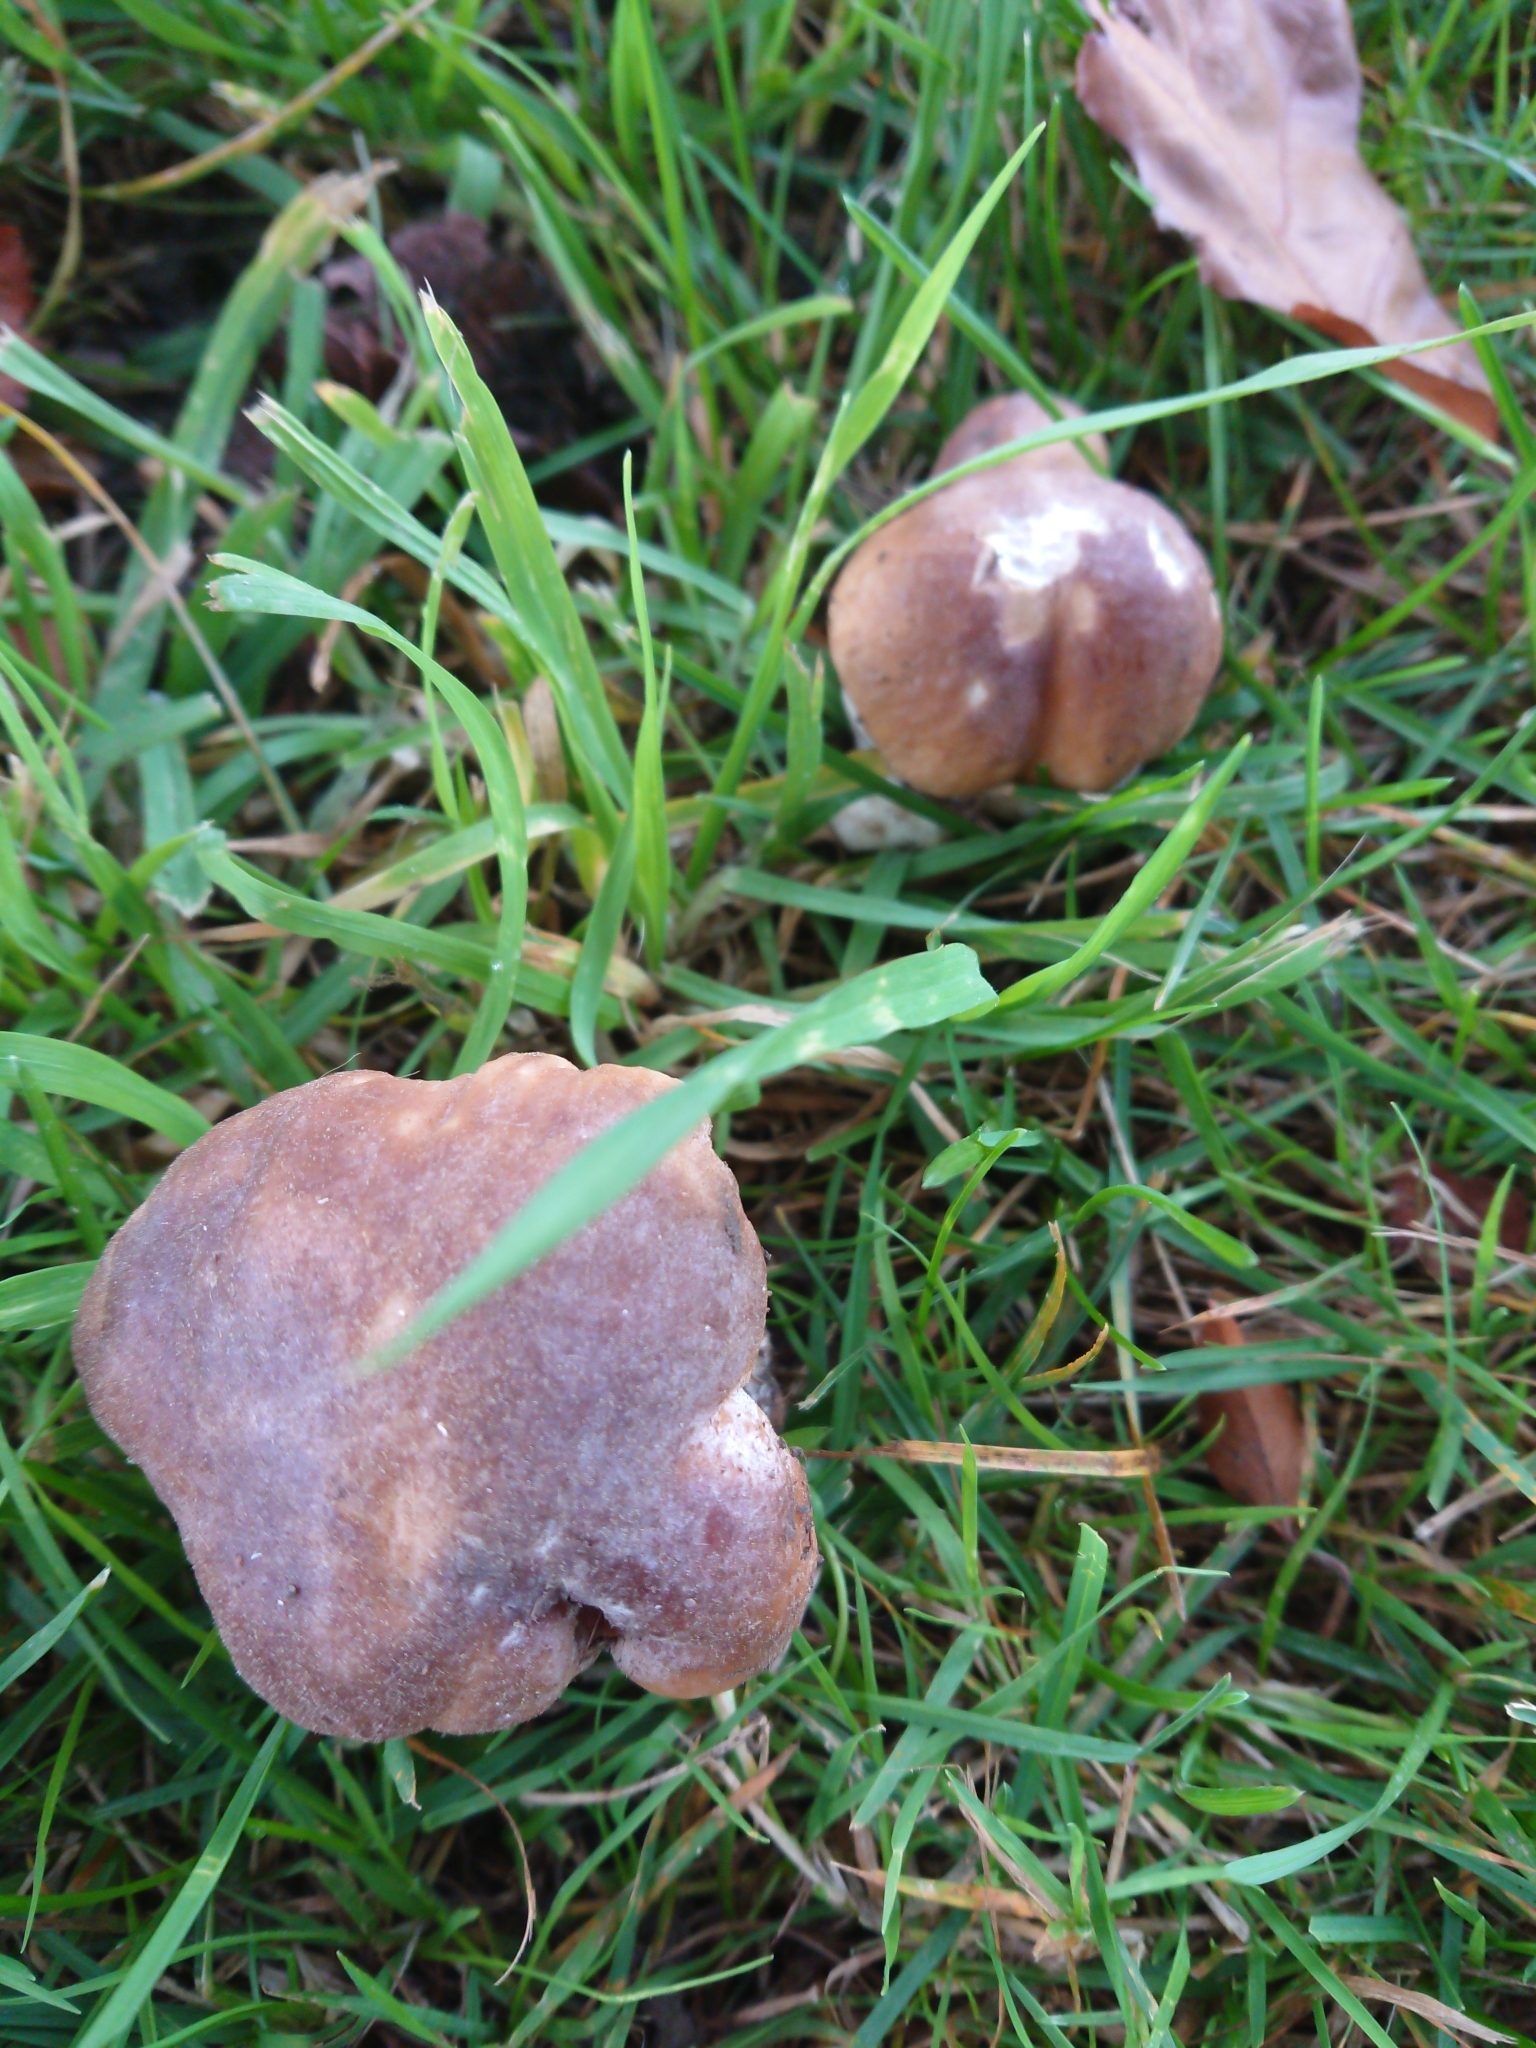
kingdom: Fungi
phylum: Basidiomycota
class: Agaricomycetes
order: Boletales
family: Boletaceae
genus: Boletus
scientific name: Boletus edulis
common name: Cep
